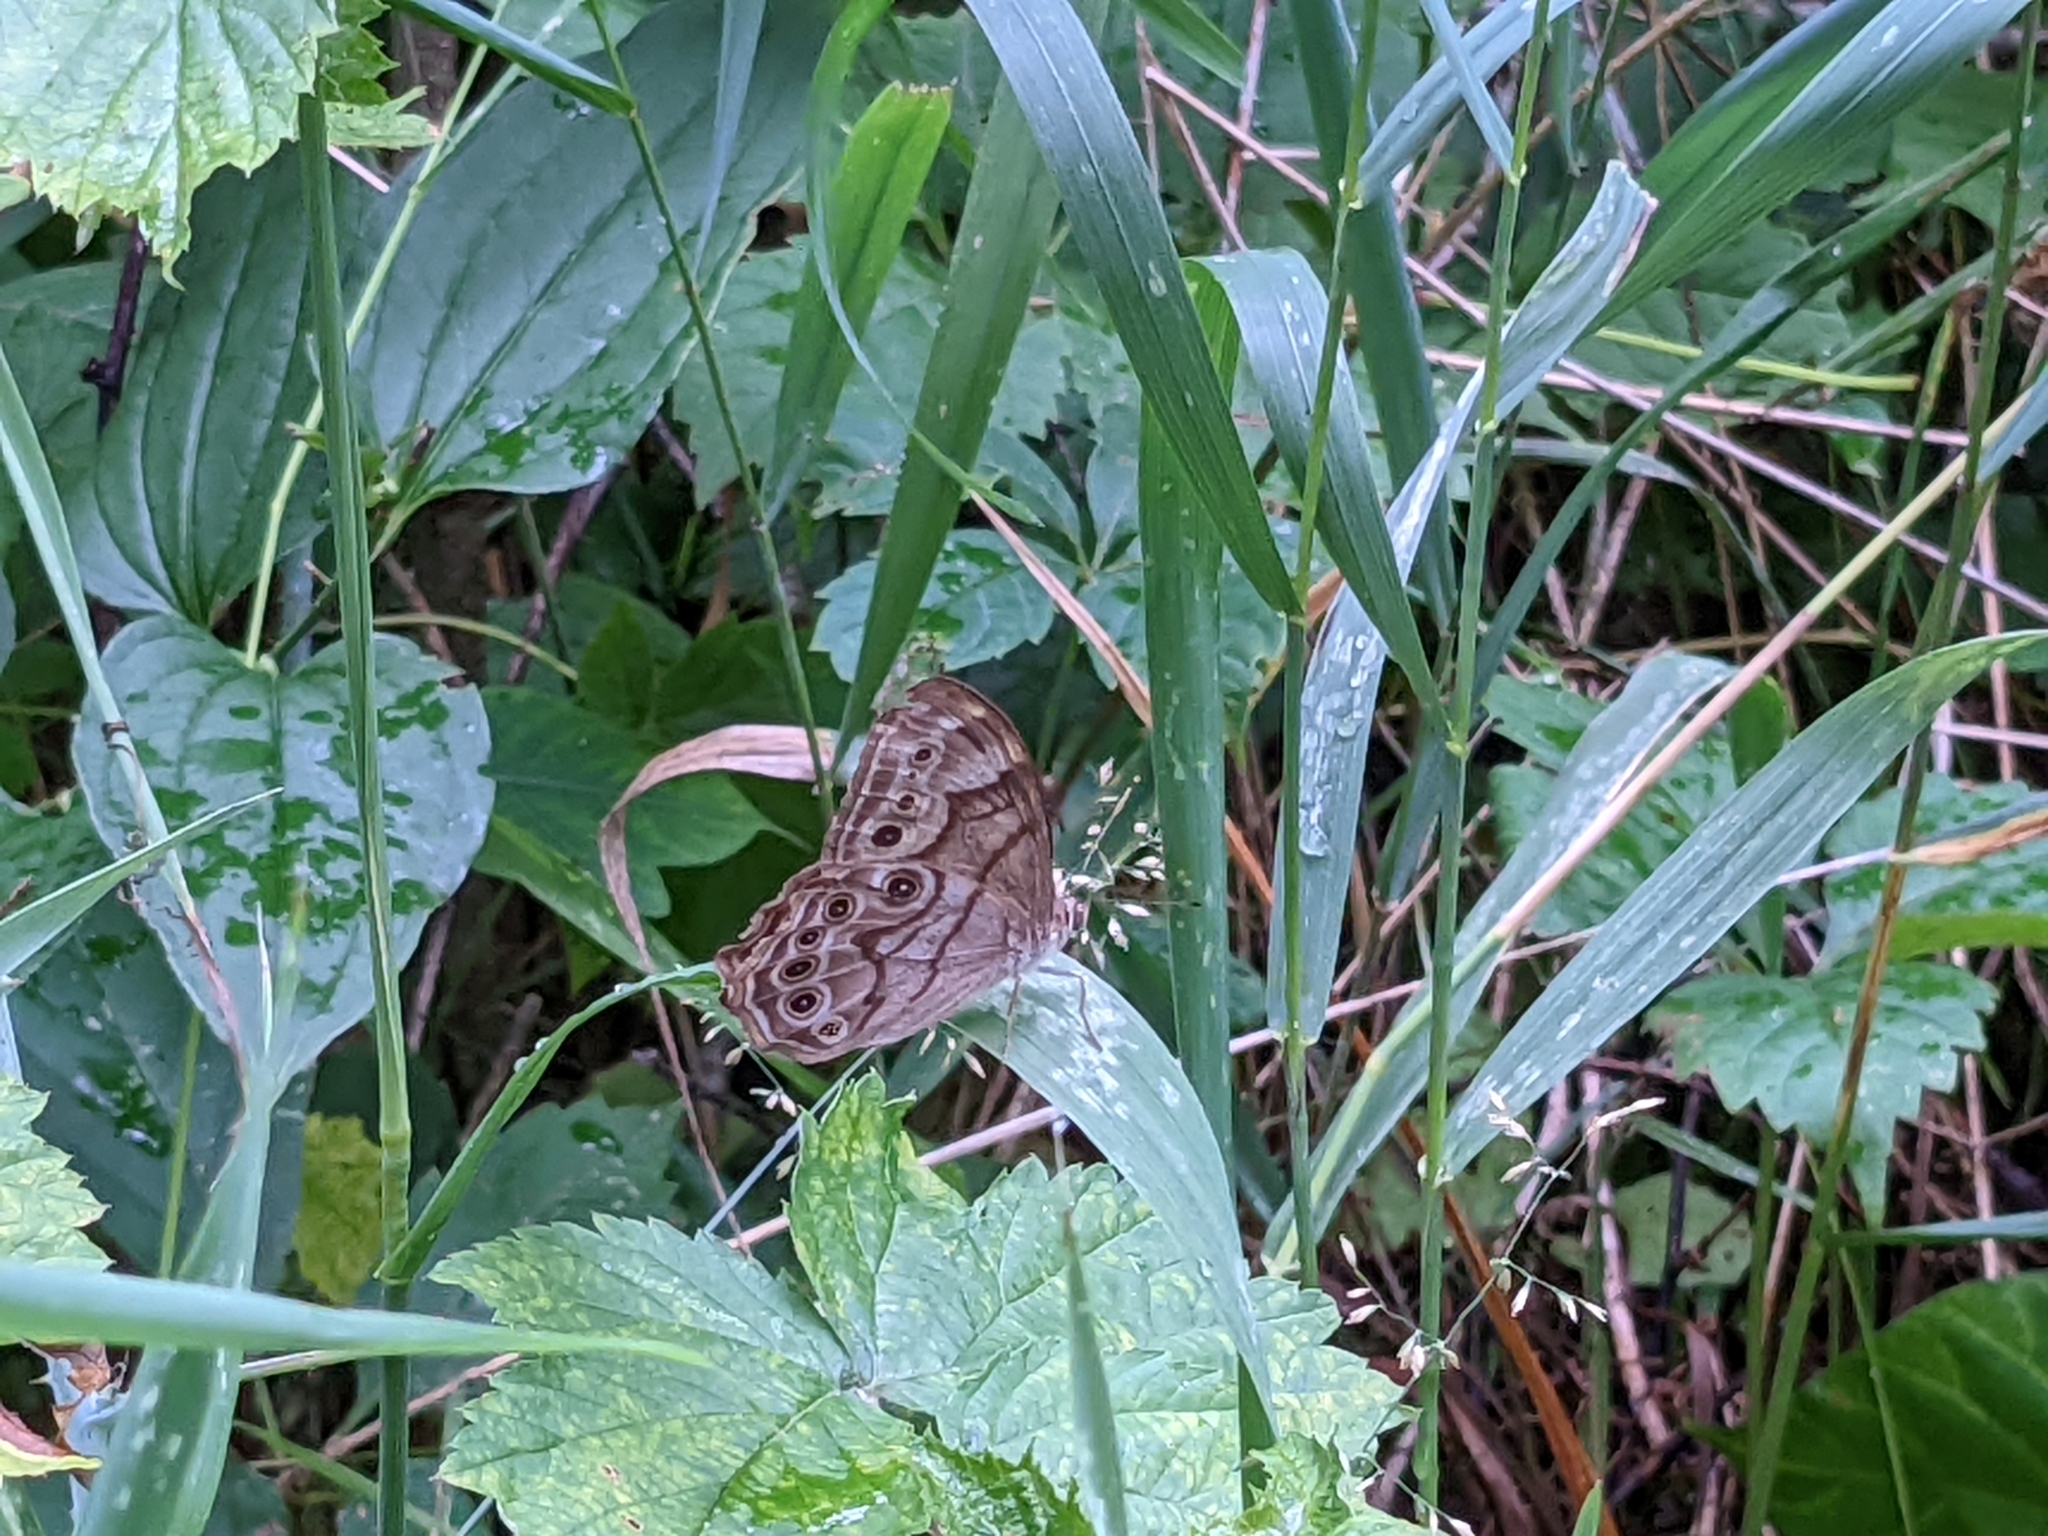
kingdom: Animalia
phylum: Arthropoda
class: Insecta
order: Lepidoptera
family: Nymphalidae
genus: Lethe
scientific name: Lethe anthedon
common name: Northern pearly-eye
